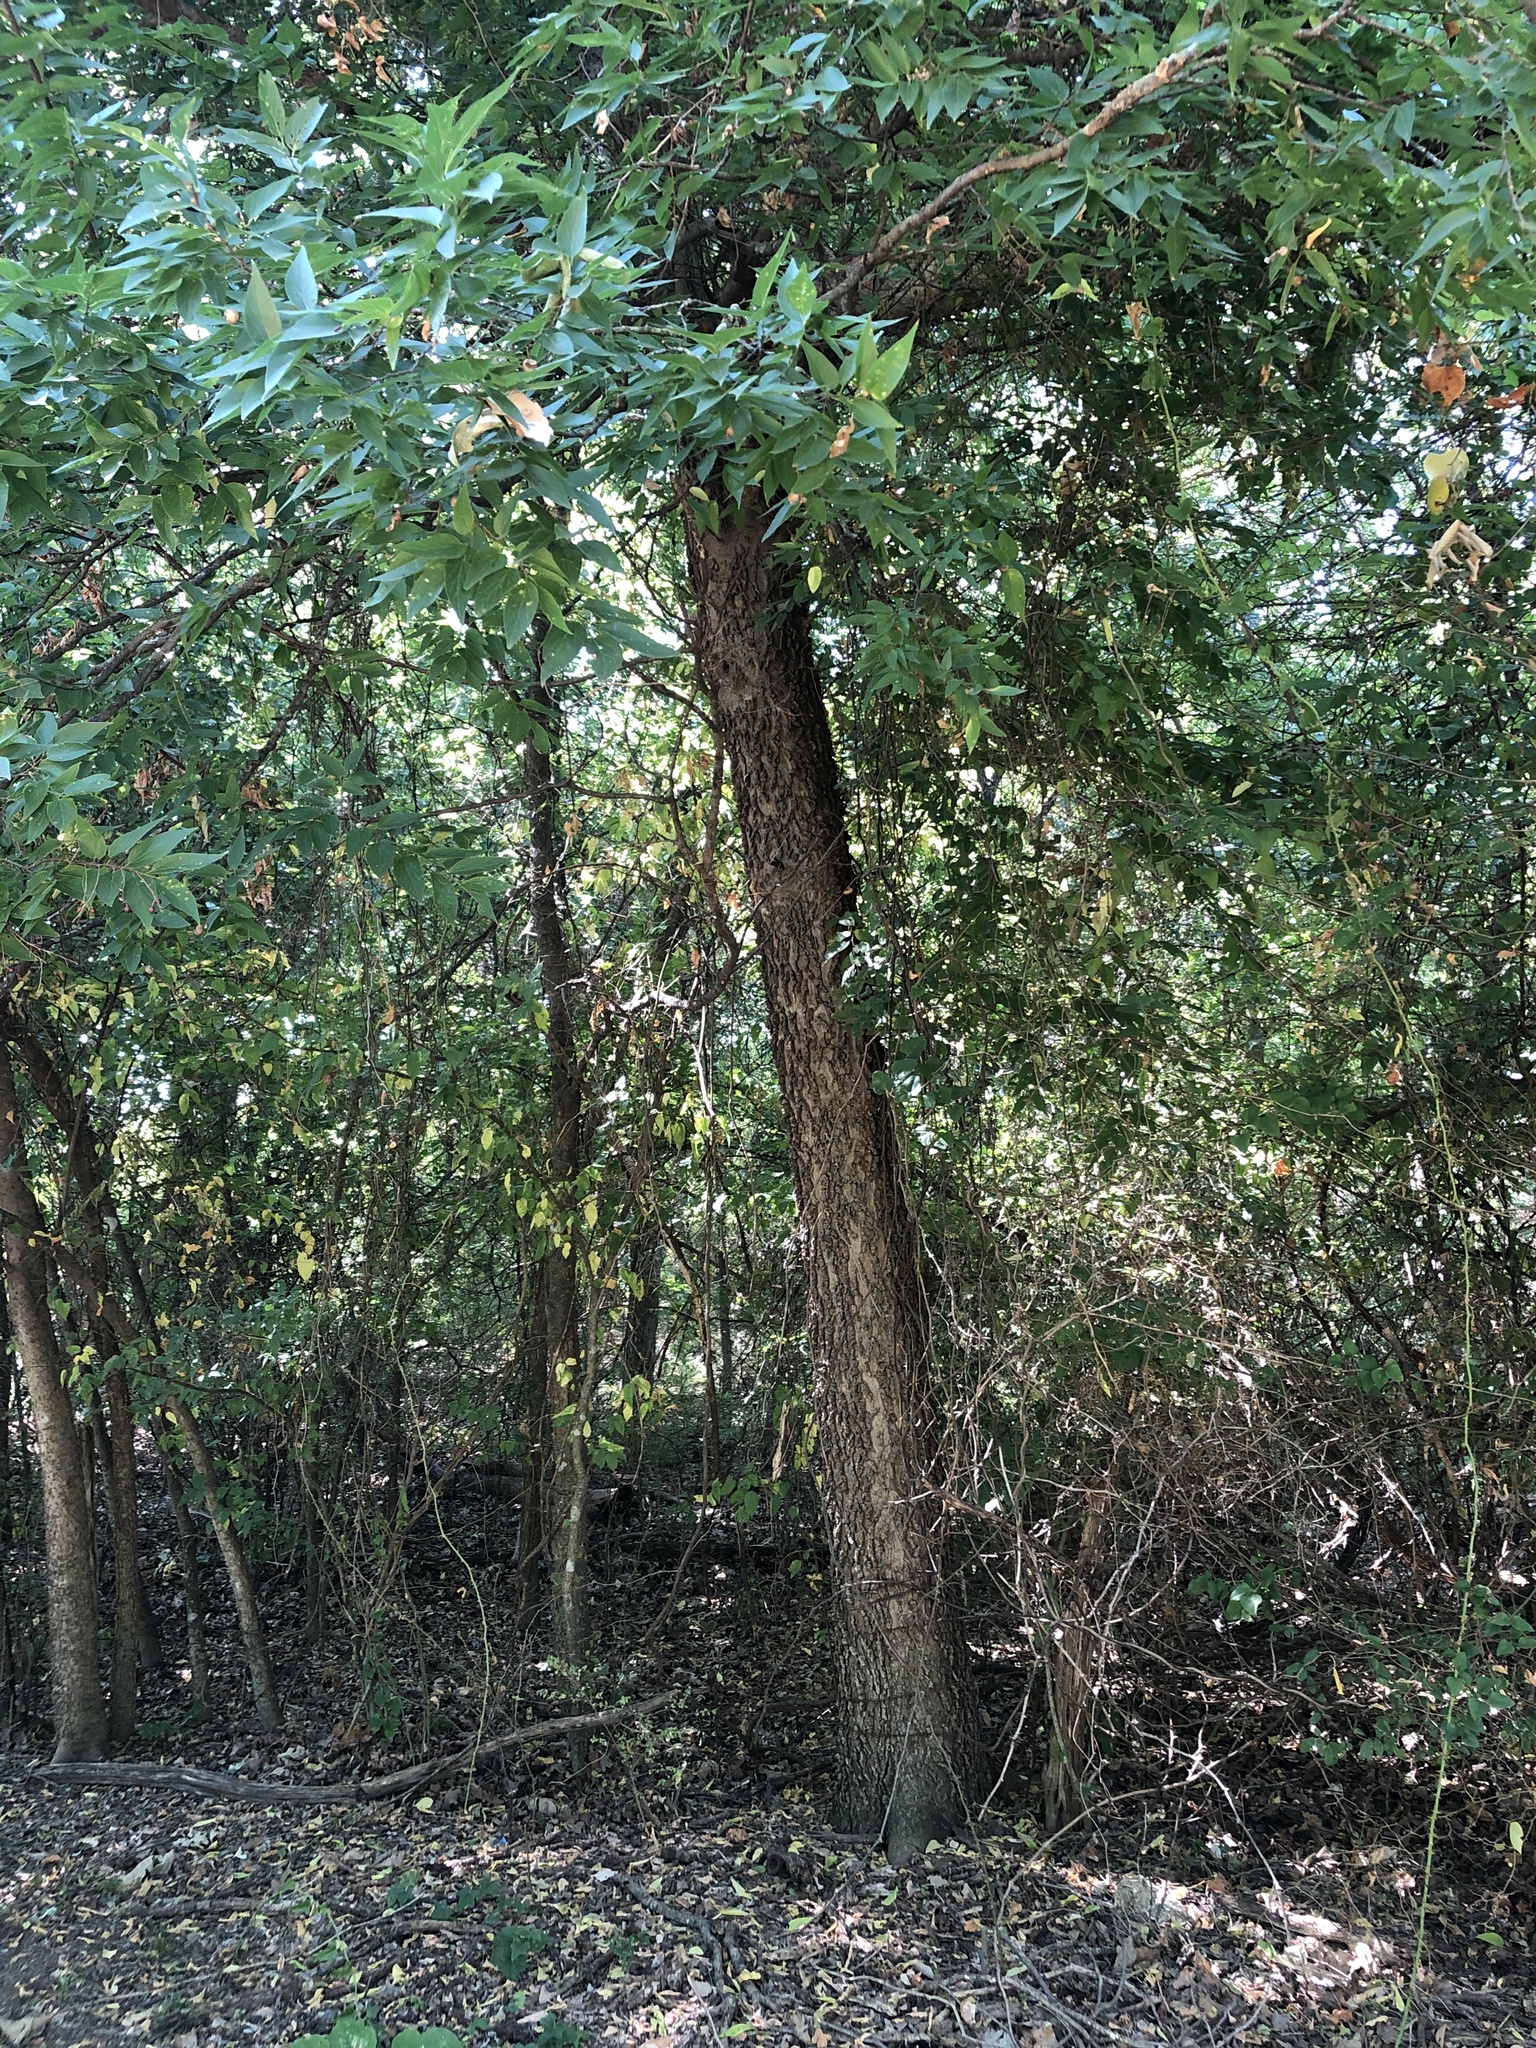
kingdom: Plantae
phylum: Tracheophyta
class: Magnoliopsida
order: Rosales
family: Cannabaceae
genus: Celtis
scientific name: Celtis laevigata
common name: Sugarberry
